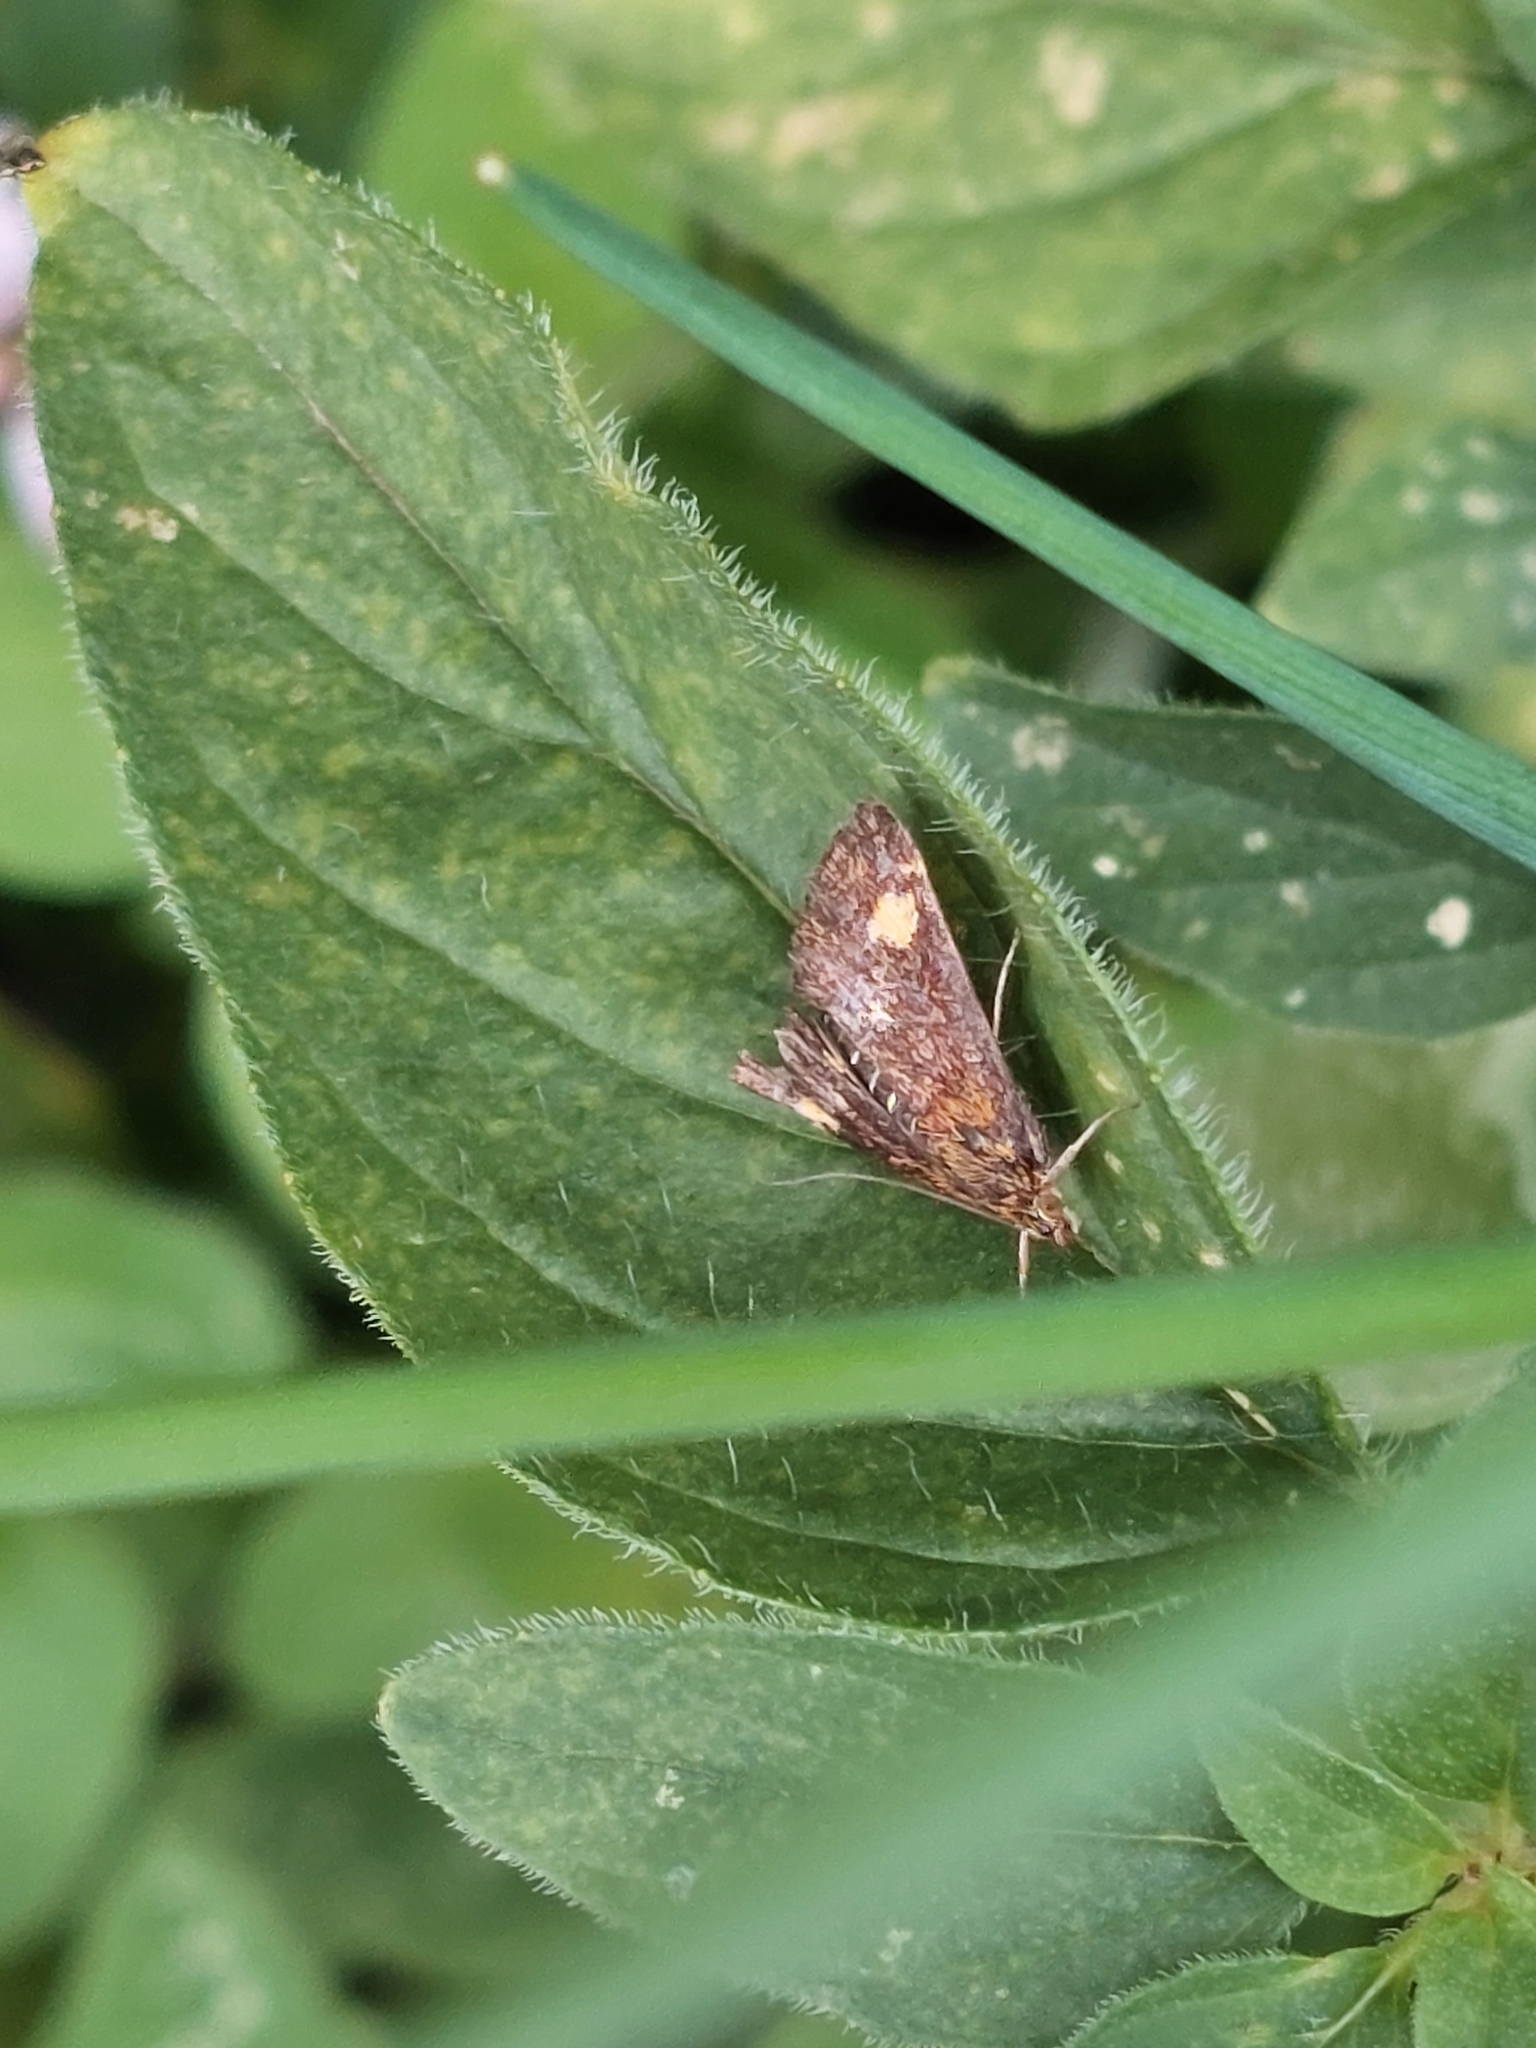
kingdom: Animalia
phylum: Arthropoda
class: Insecta
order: Lepidoptera
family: Crambidae
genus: Pyrausta
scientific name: Pyrausta aurata
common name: Small purple & gold
